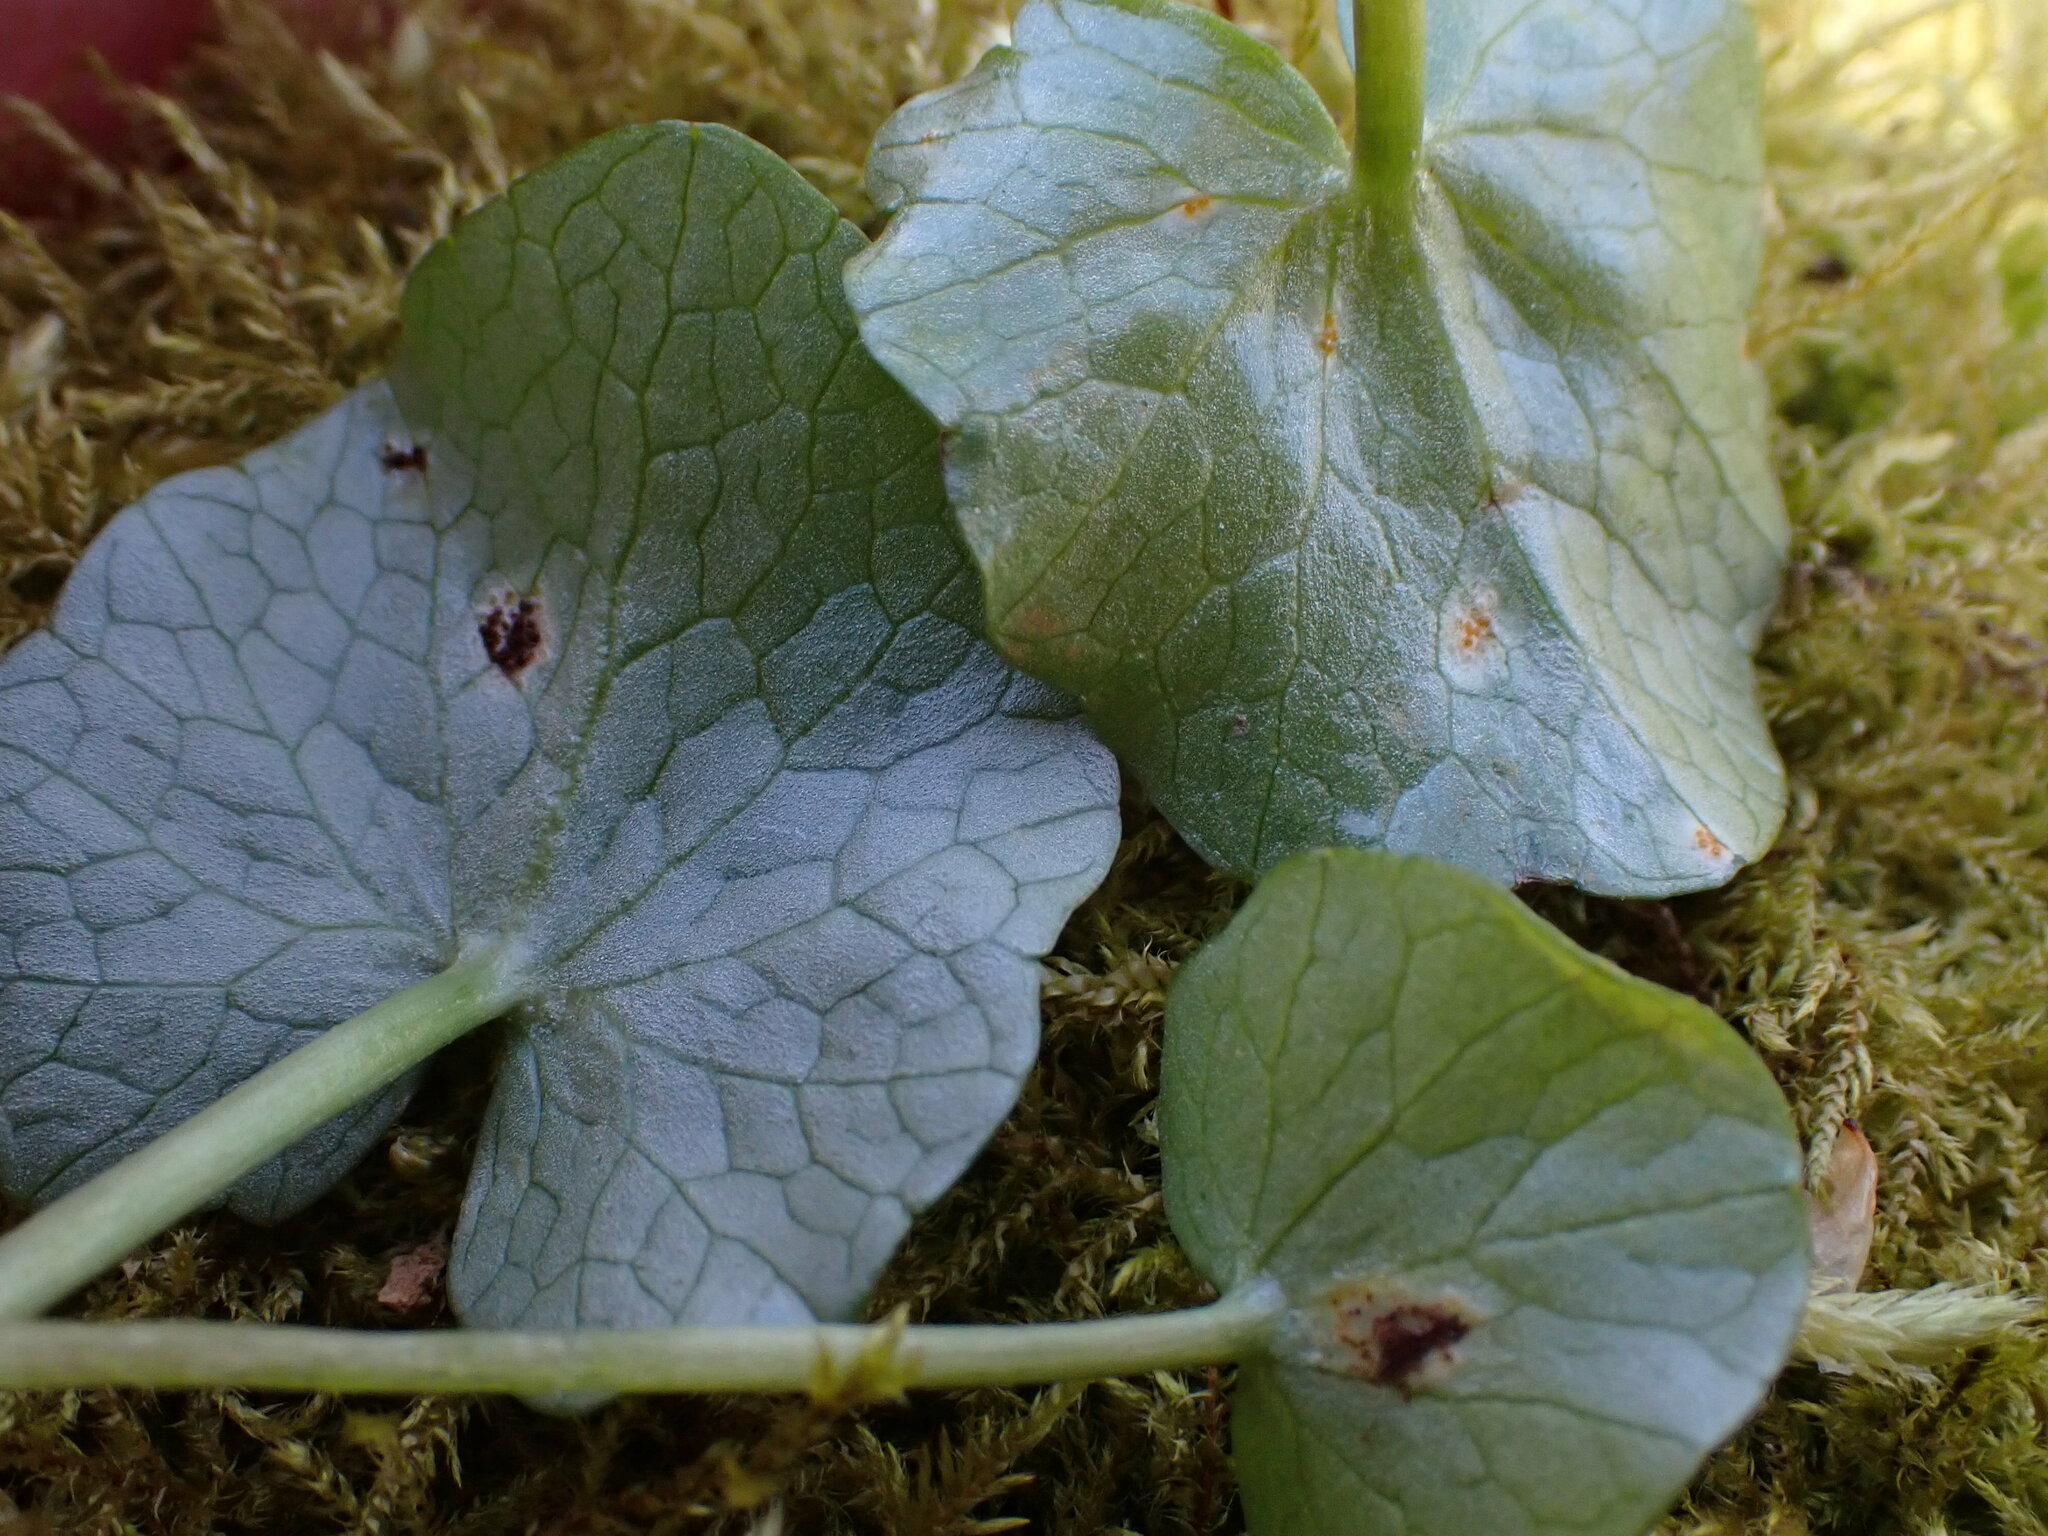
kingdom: Fungi
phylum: Basidiomycota
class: Pucciniomycetes
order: Pucciniales
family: Pucciniaceae
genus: Uromyces
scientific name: Uromyces ficariae
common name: Bitter chocolate rust
